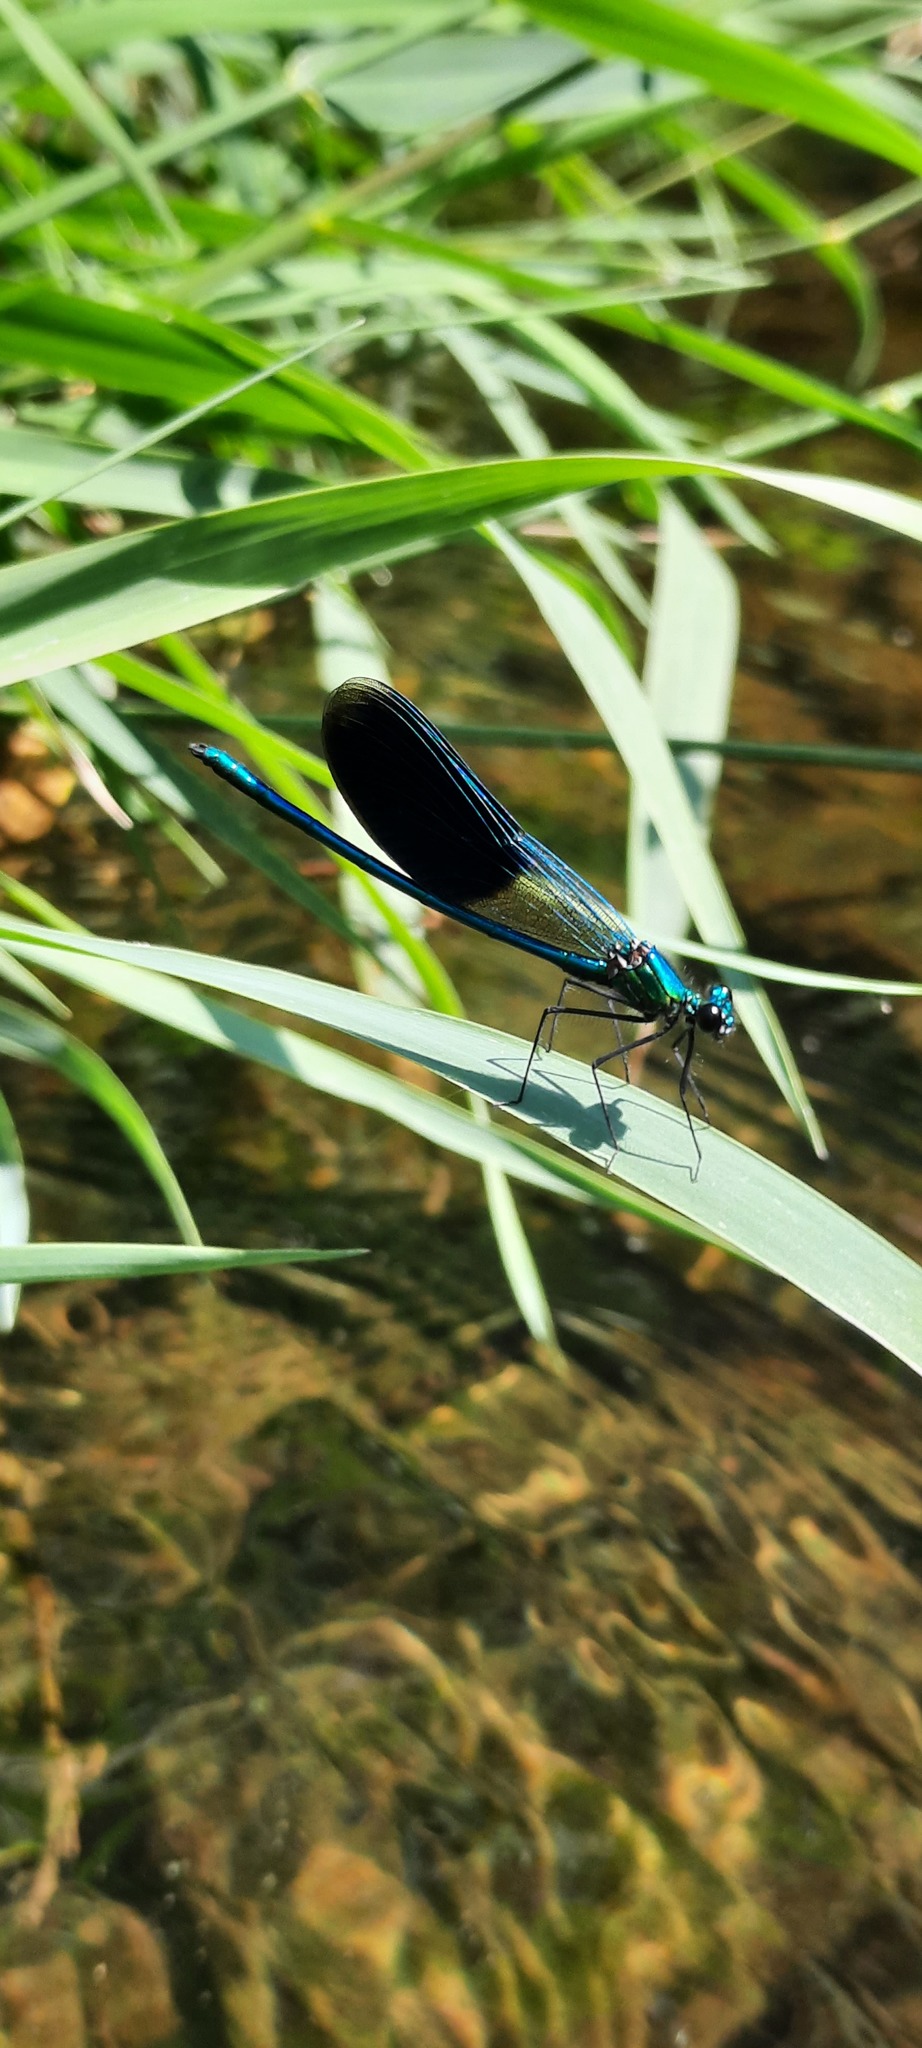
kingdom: Animalia
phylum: Arthropoda
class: Insecta
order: Odonata
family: Calopterygidae
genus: Calopteryx
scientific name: Calopteryx splendens
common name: Banded demoiselle
